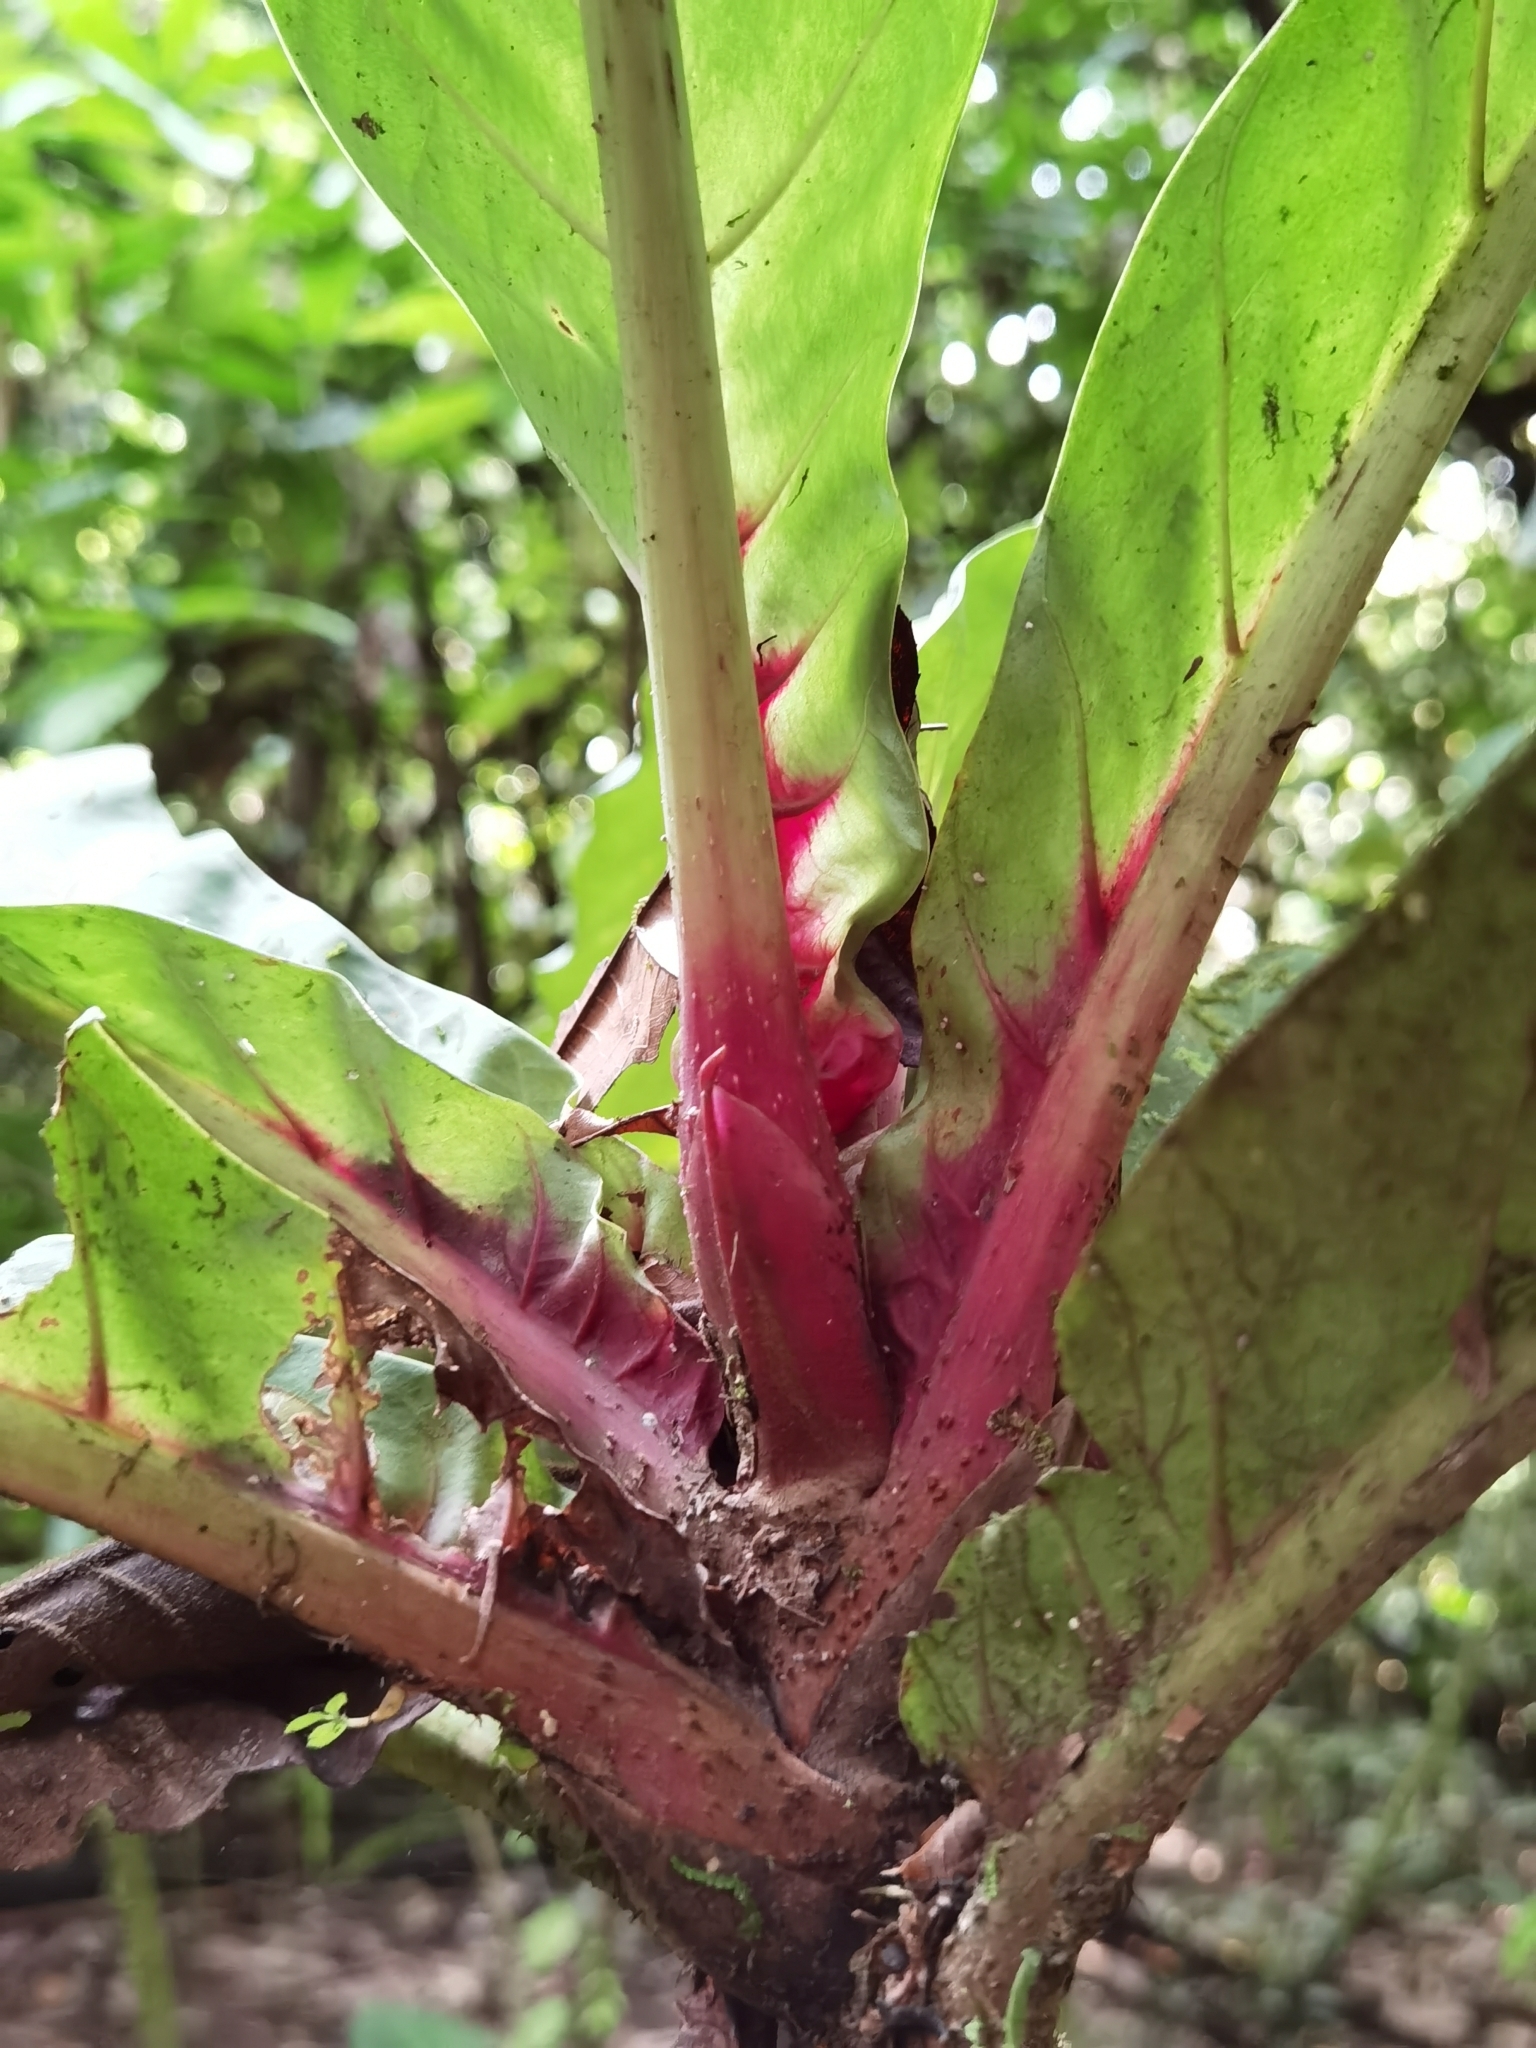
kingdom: Plantae
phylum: Tracheophyta
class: Magnoliopsida
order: Gentianales
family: Rubiaceae
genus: Pentagonia
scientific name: Pentagonia wendlandii
